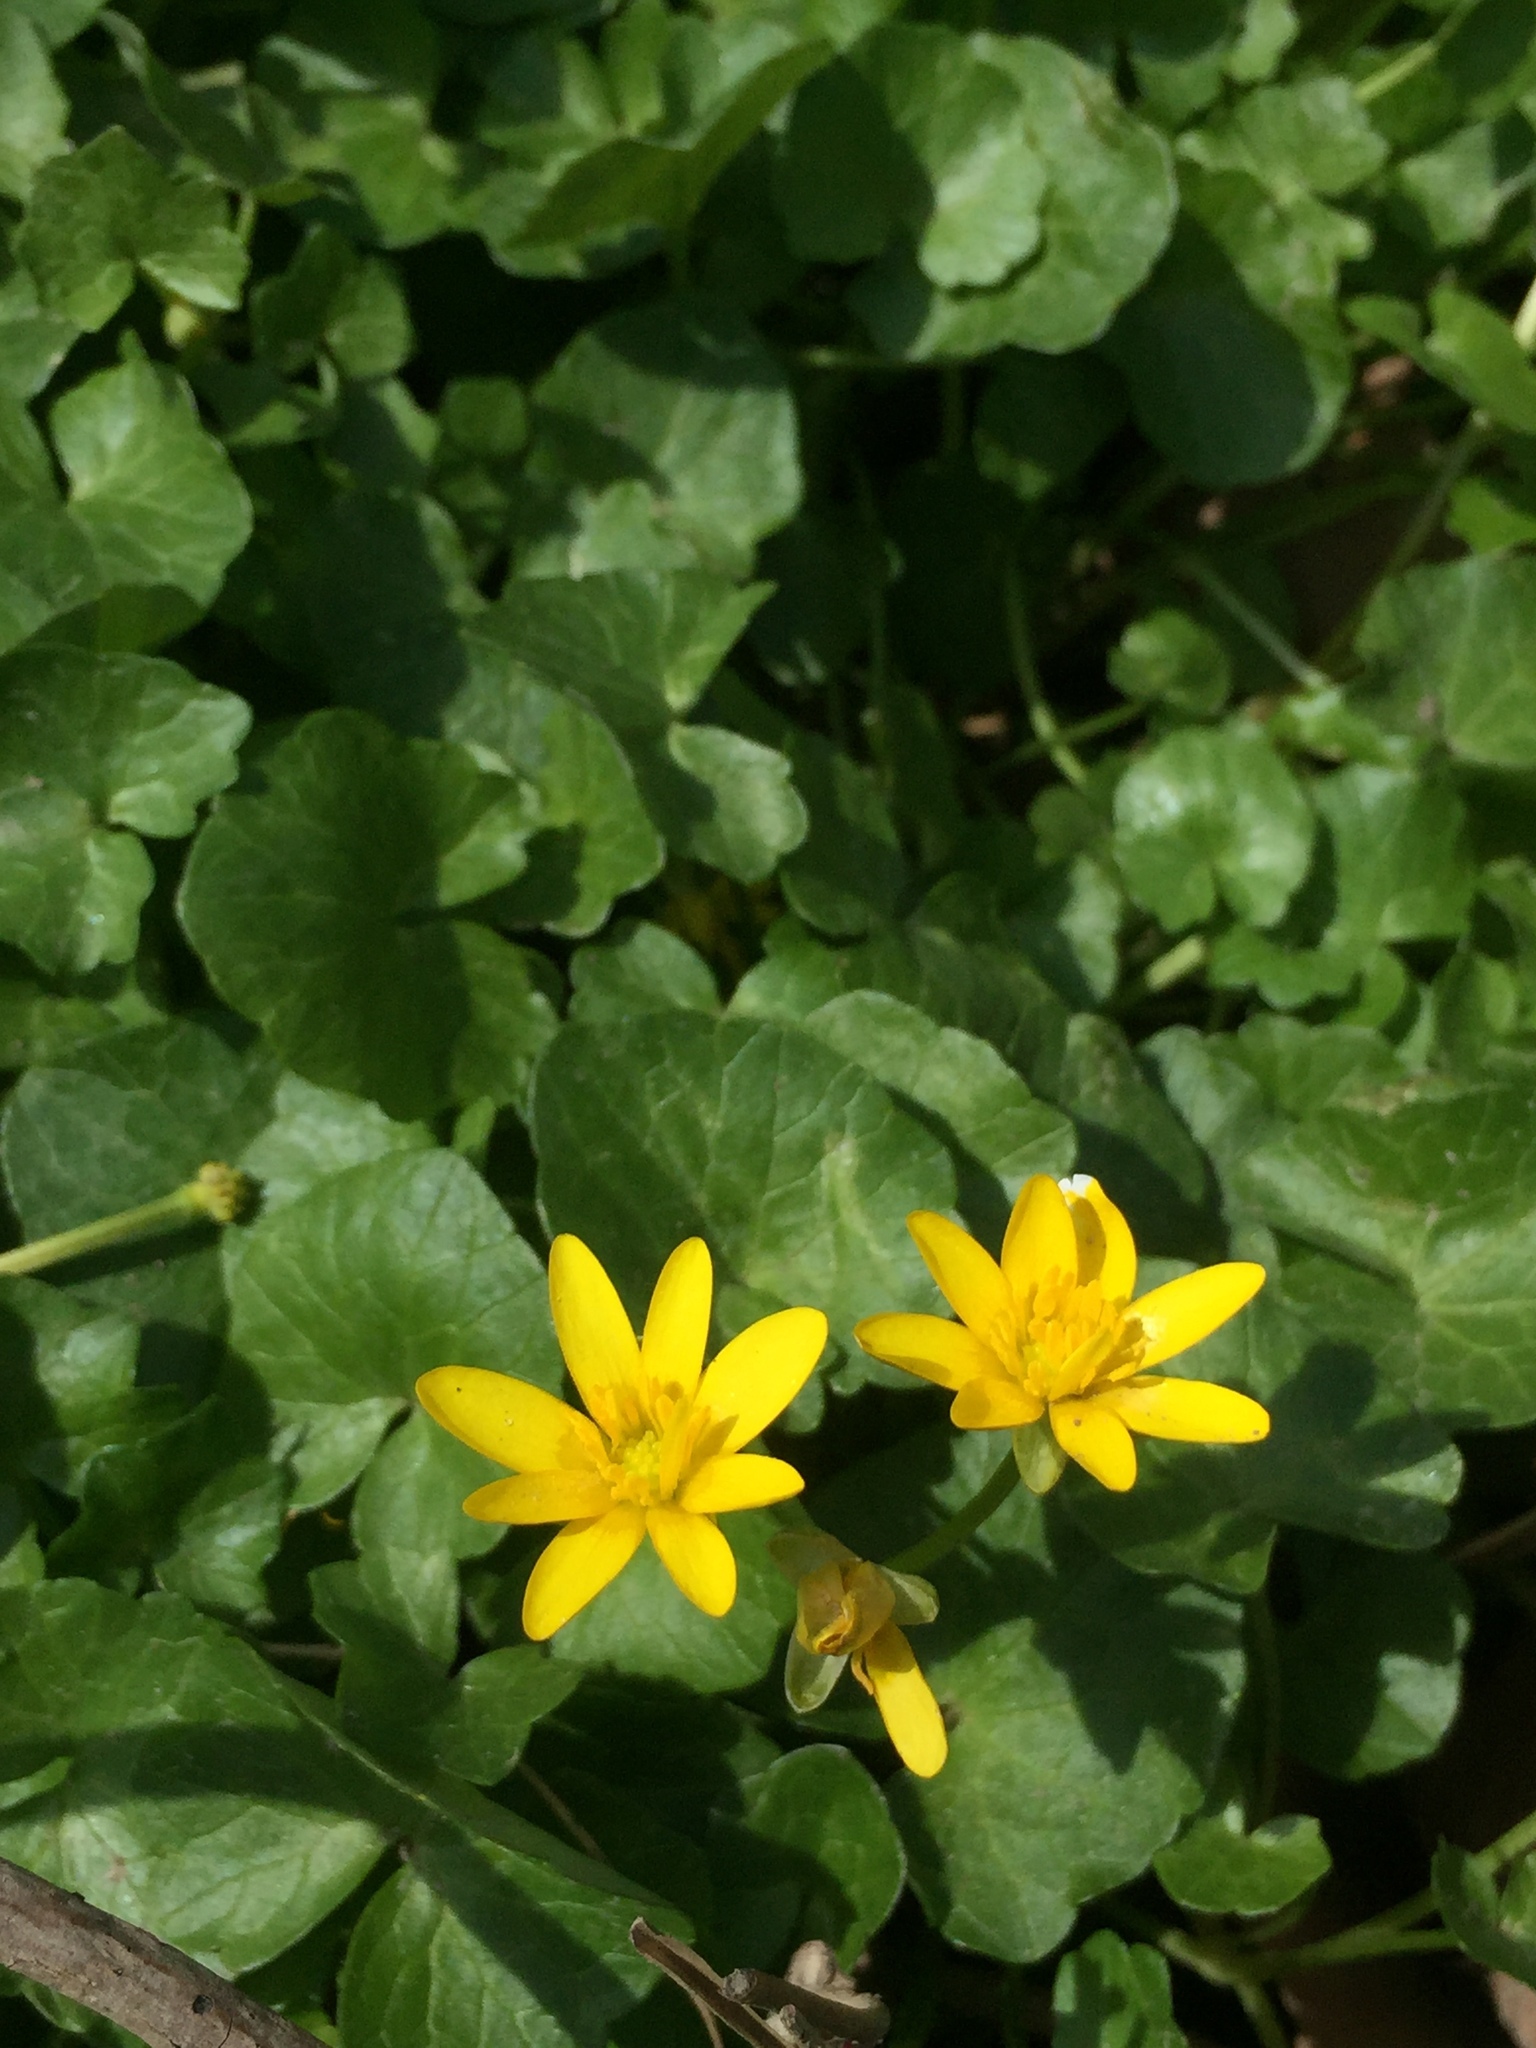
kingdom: Plantae
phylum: Tracheophyta
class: Magnoliopsida
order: Ranunculales
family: Ranunculaceae
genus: Ficaria
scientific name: Ficaria verna
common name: Lesser celandine
